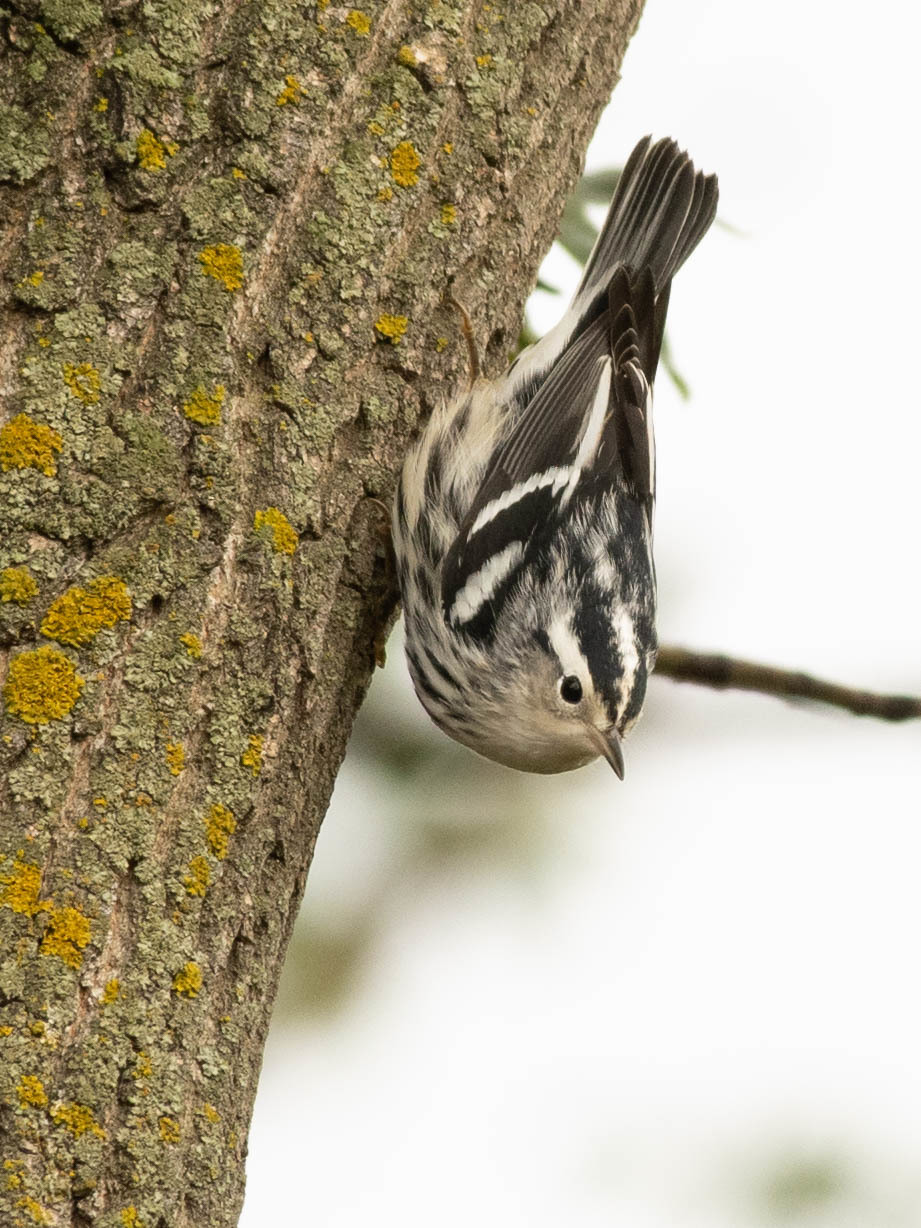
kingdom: Animalia
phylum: Chordata
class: Aves
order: Passeriformes
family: Parulidae
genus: Mniotilta
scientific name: Mniotilta varia
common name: Black-and-white warbler
